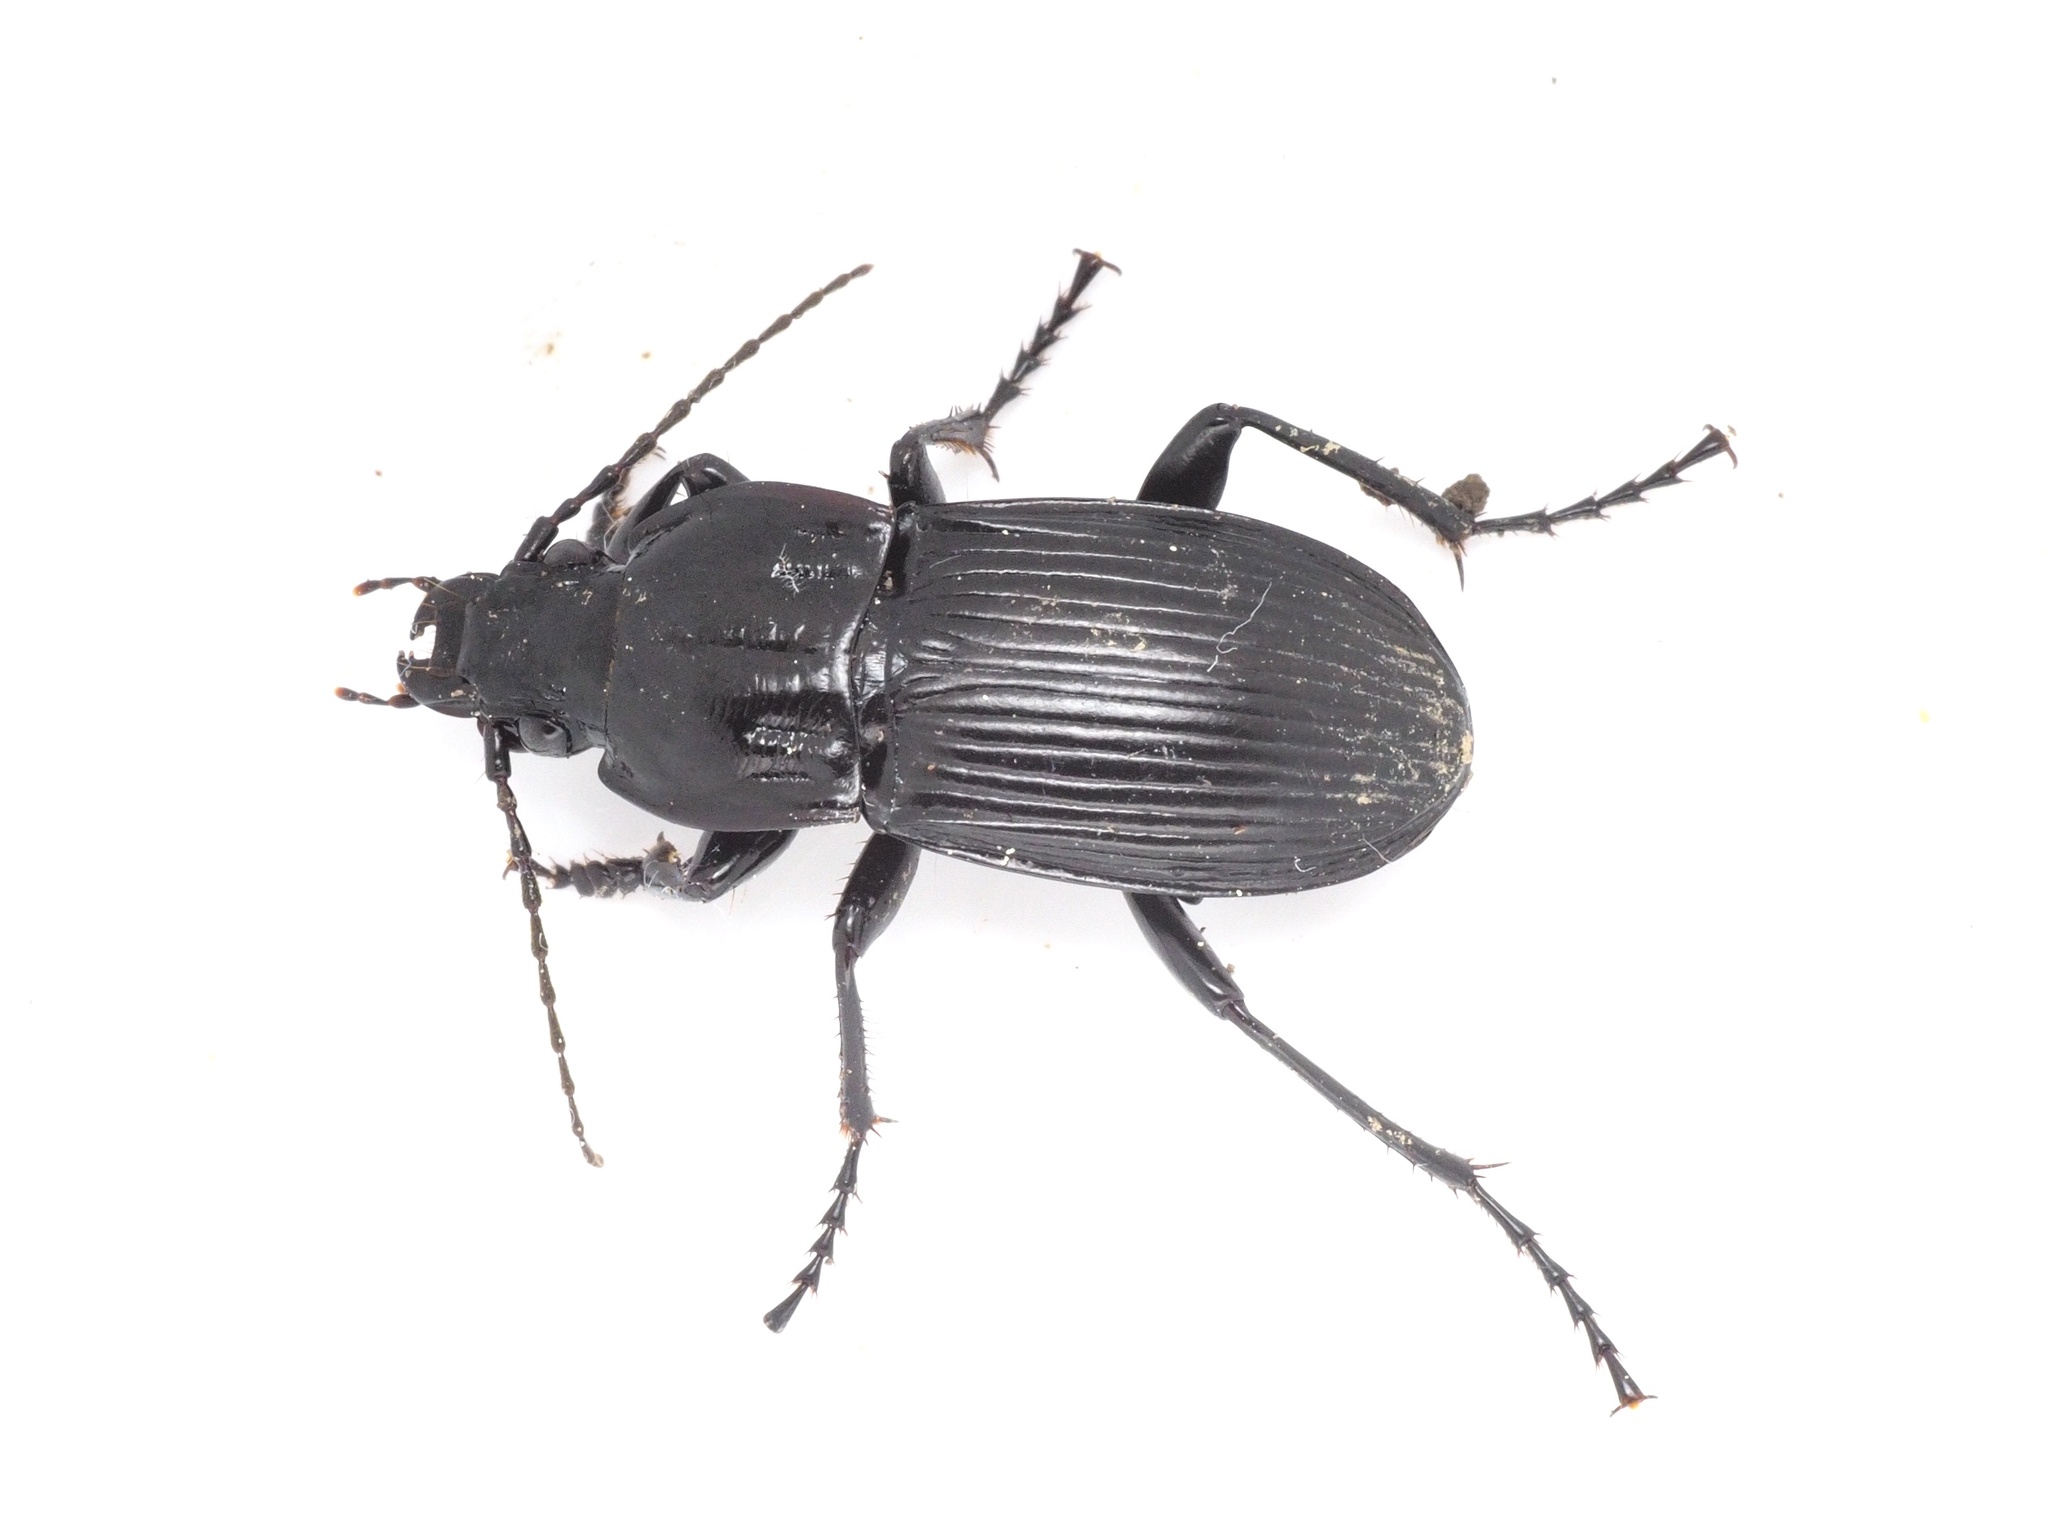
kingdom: Animalia
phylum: Arthropoda
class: Insecta
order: Coleoptera
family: Carabidae
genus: Abax
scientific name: Abax parallelepipedus
